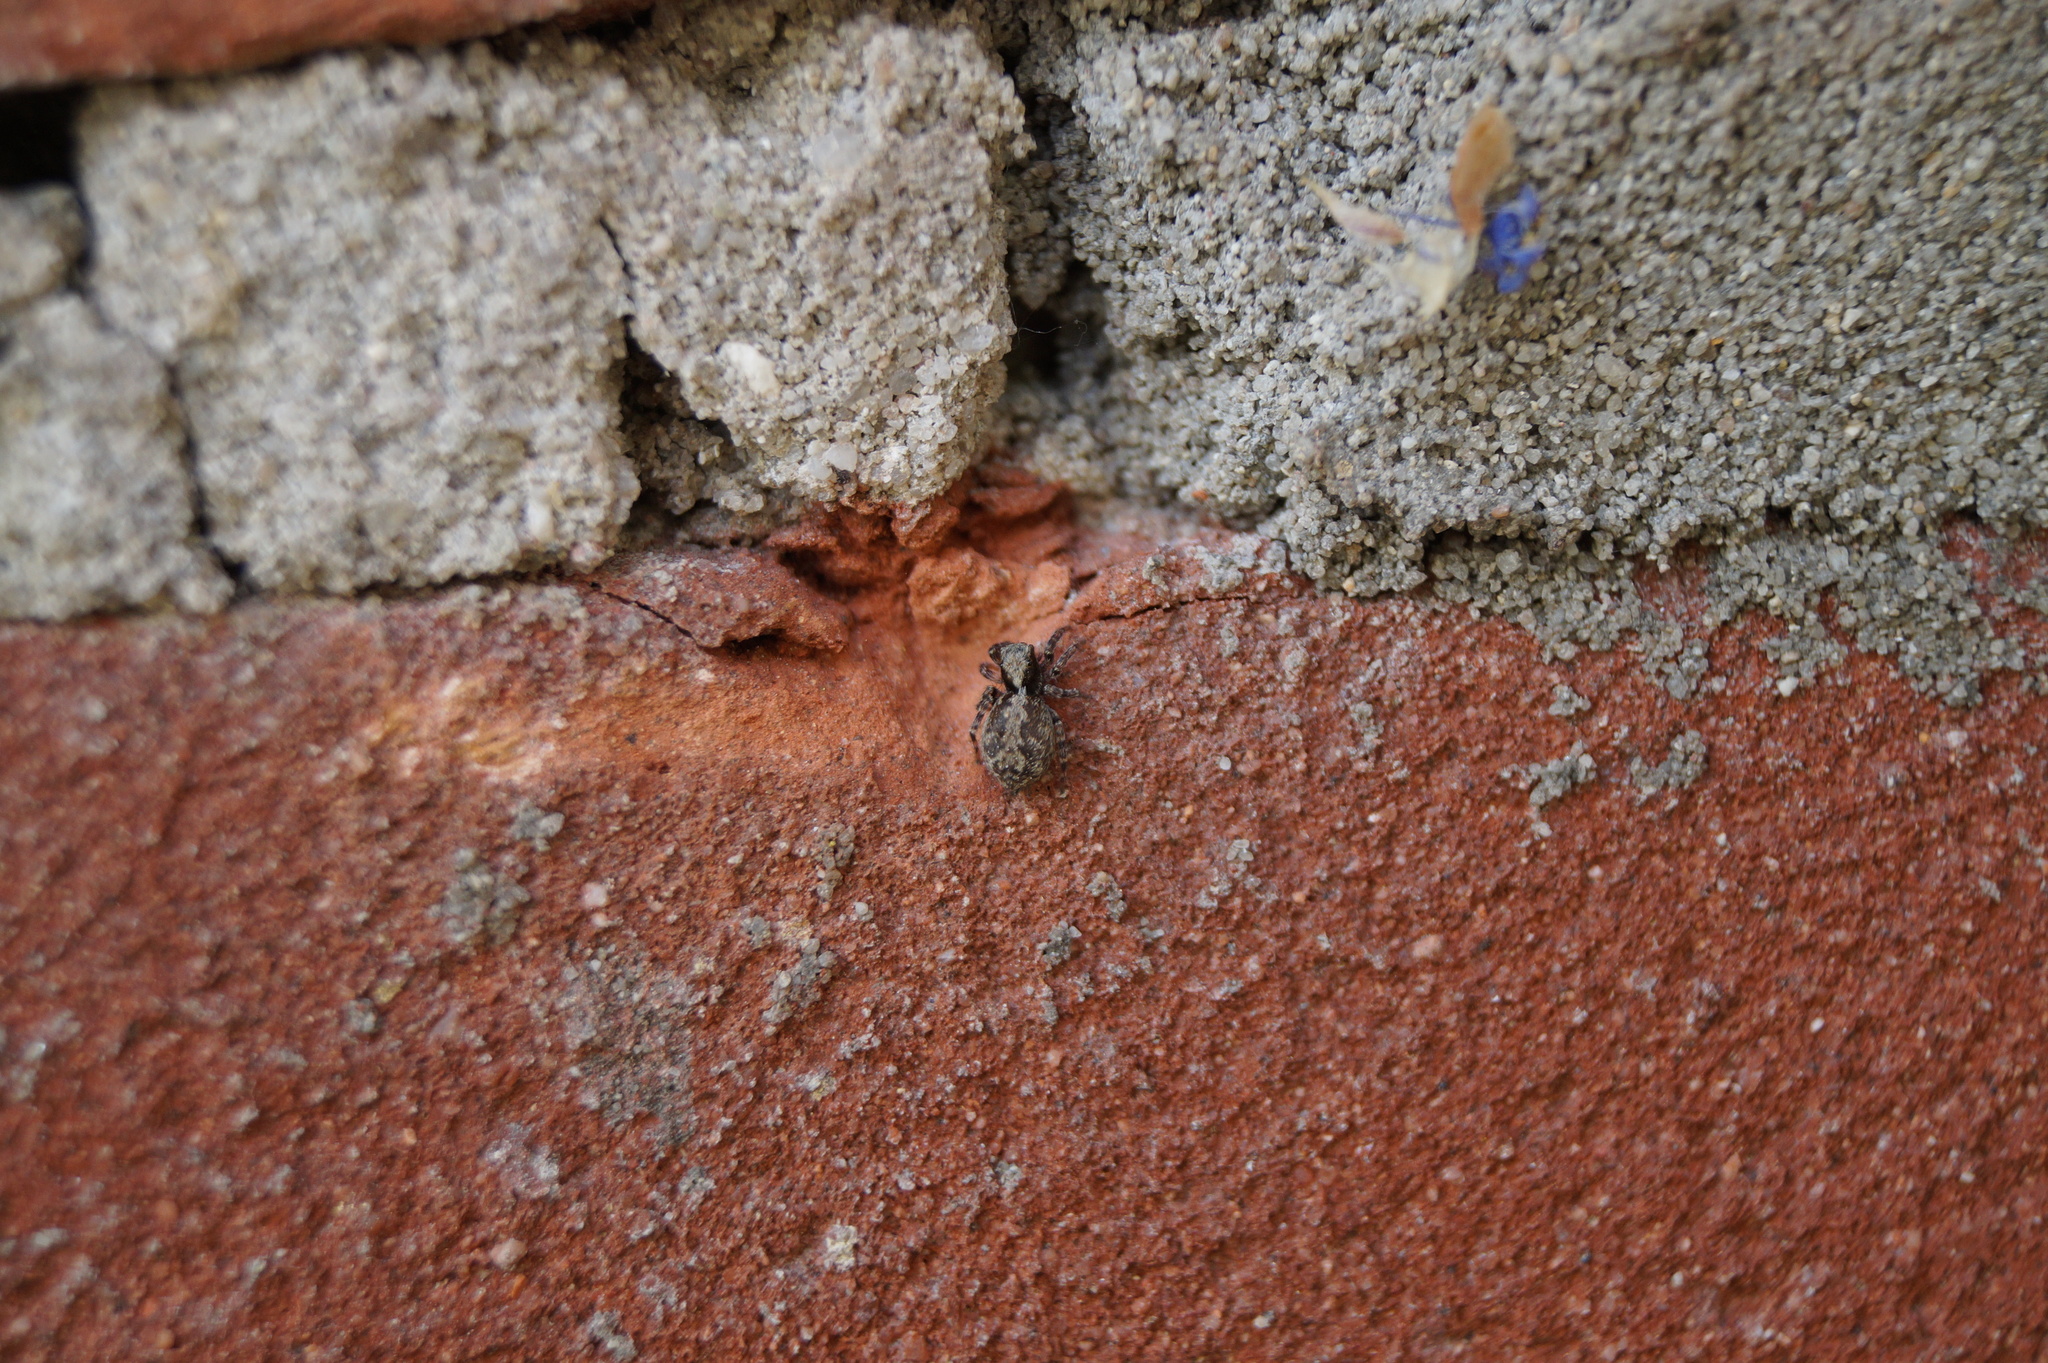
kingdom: Animalia
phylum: Arthropoda
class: Arachnida
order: Araneae
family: Salticidae
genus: Pseudeuophrys
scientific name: Pseudeuophrys lanigera
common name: Jumping spider
